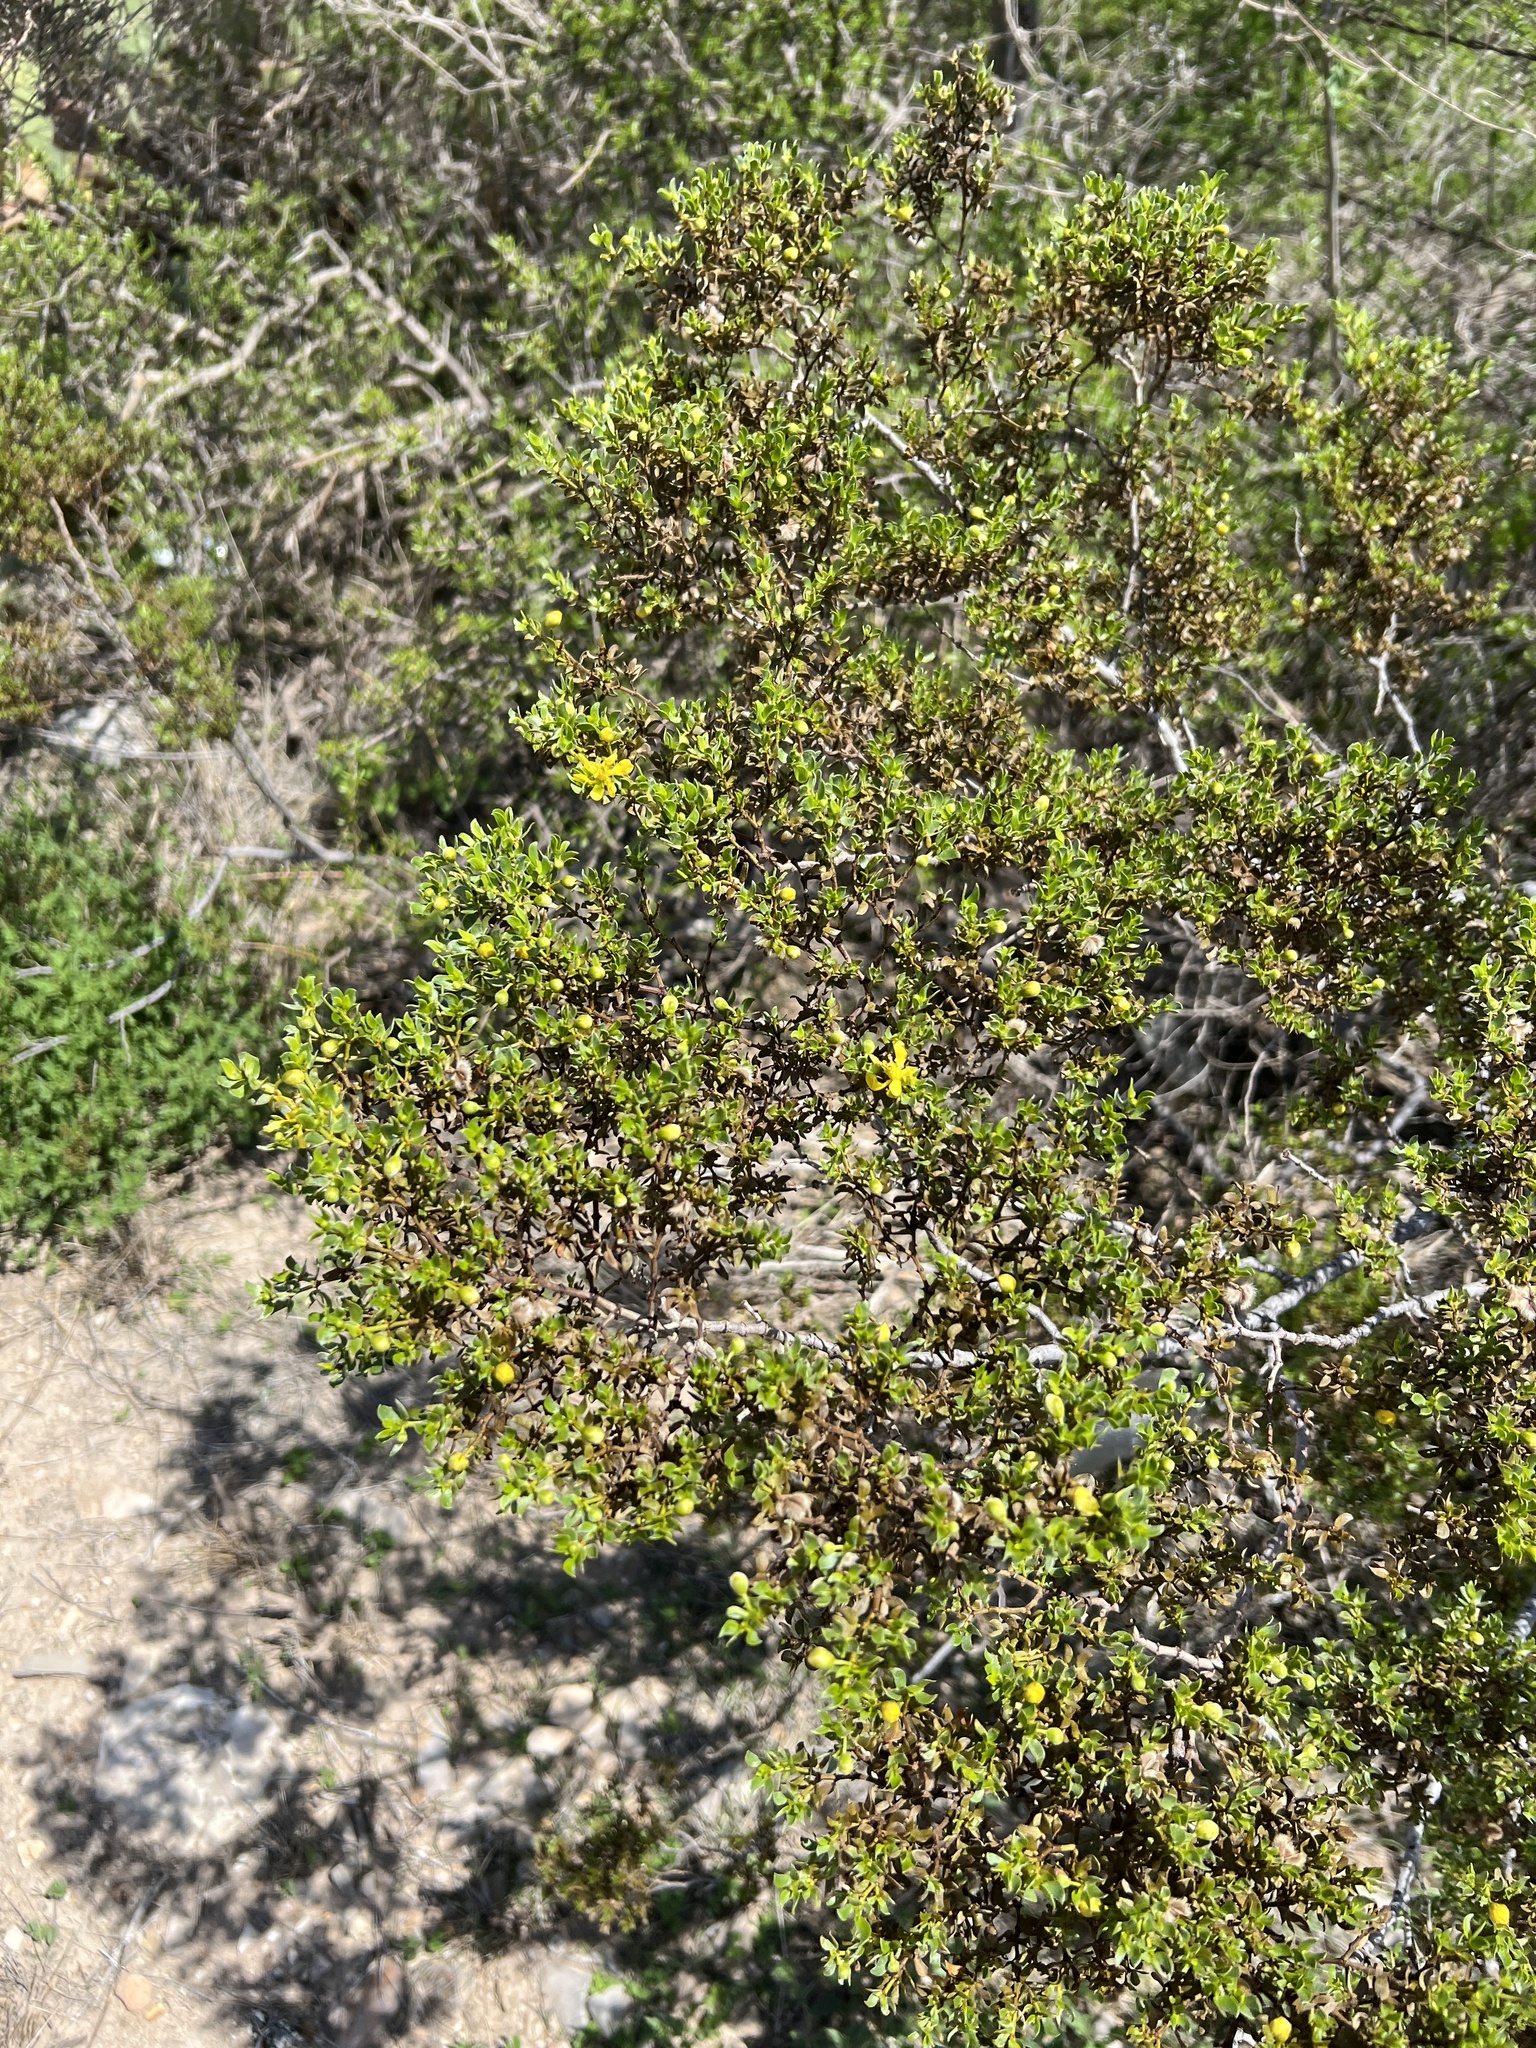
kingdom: Plantae
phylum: Tracheophyta
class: Magnoliopsida
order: Zygophyllales
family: Zygophyllaceae
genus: Larrea
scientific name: Larrea tridentata
